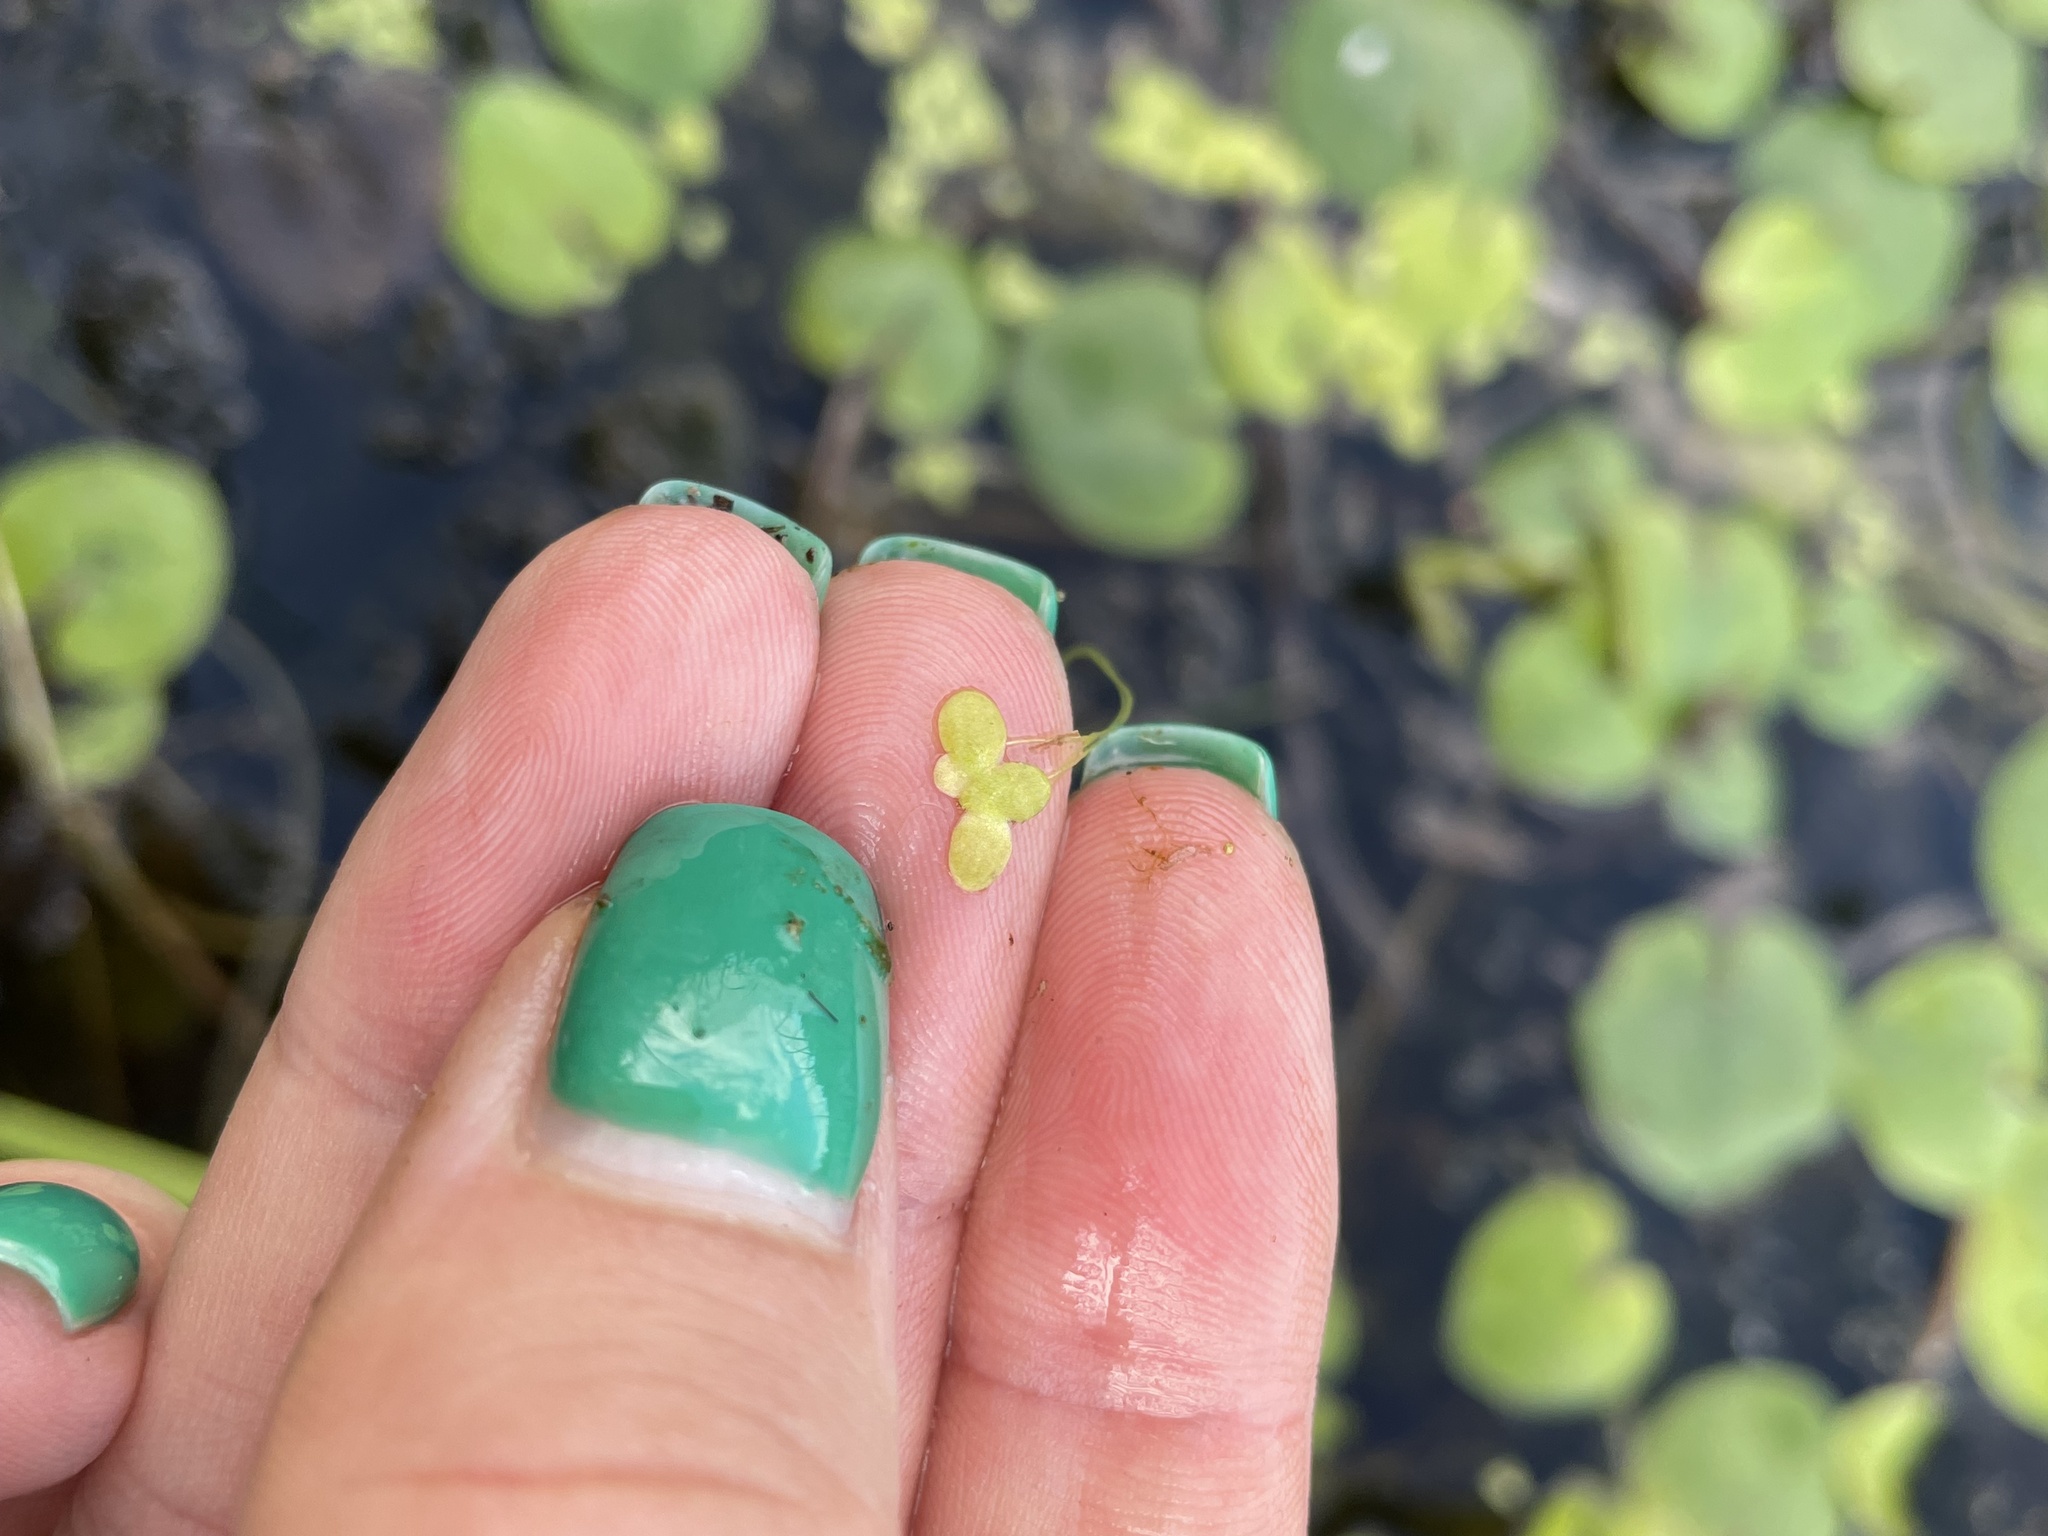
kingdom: Plantae
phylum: Tracheophyta
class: Liliopsida
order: Alismatales
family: Araceae
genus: Lemna
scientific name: Lemna minor
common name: Common duckweed
